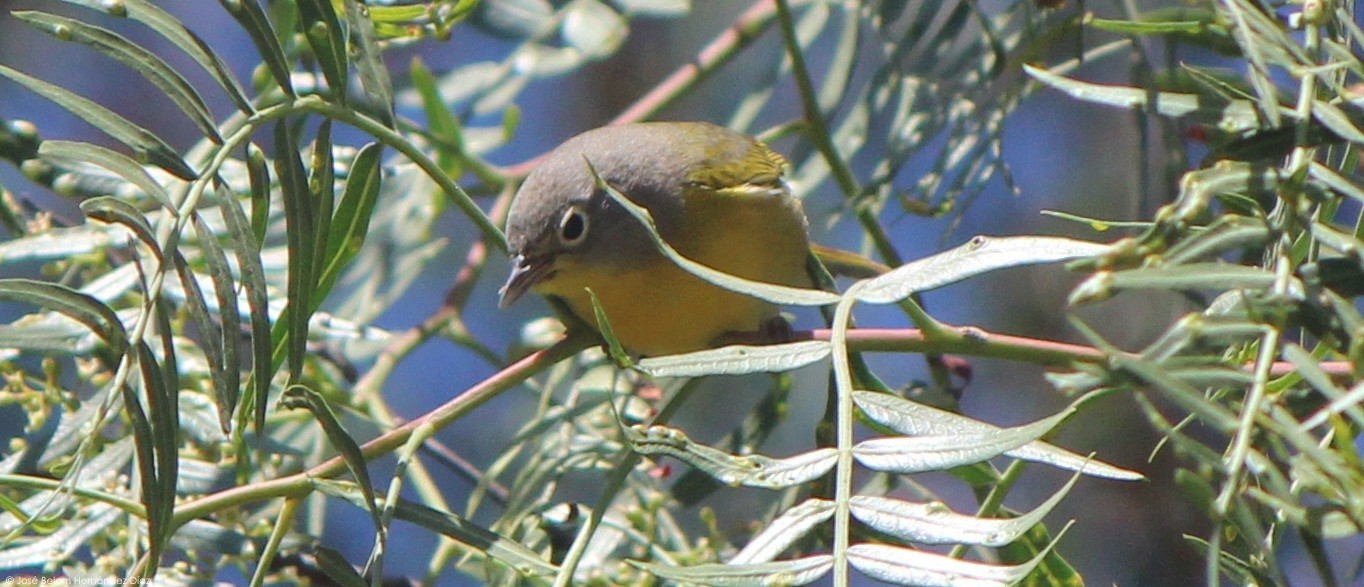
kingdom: Animalia
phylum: Chordata
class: Aves
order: Passeriformes
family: Parulidae
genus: Leiothlypis
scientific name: Leiothlypis ruficapilla
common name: Nashville warbler
